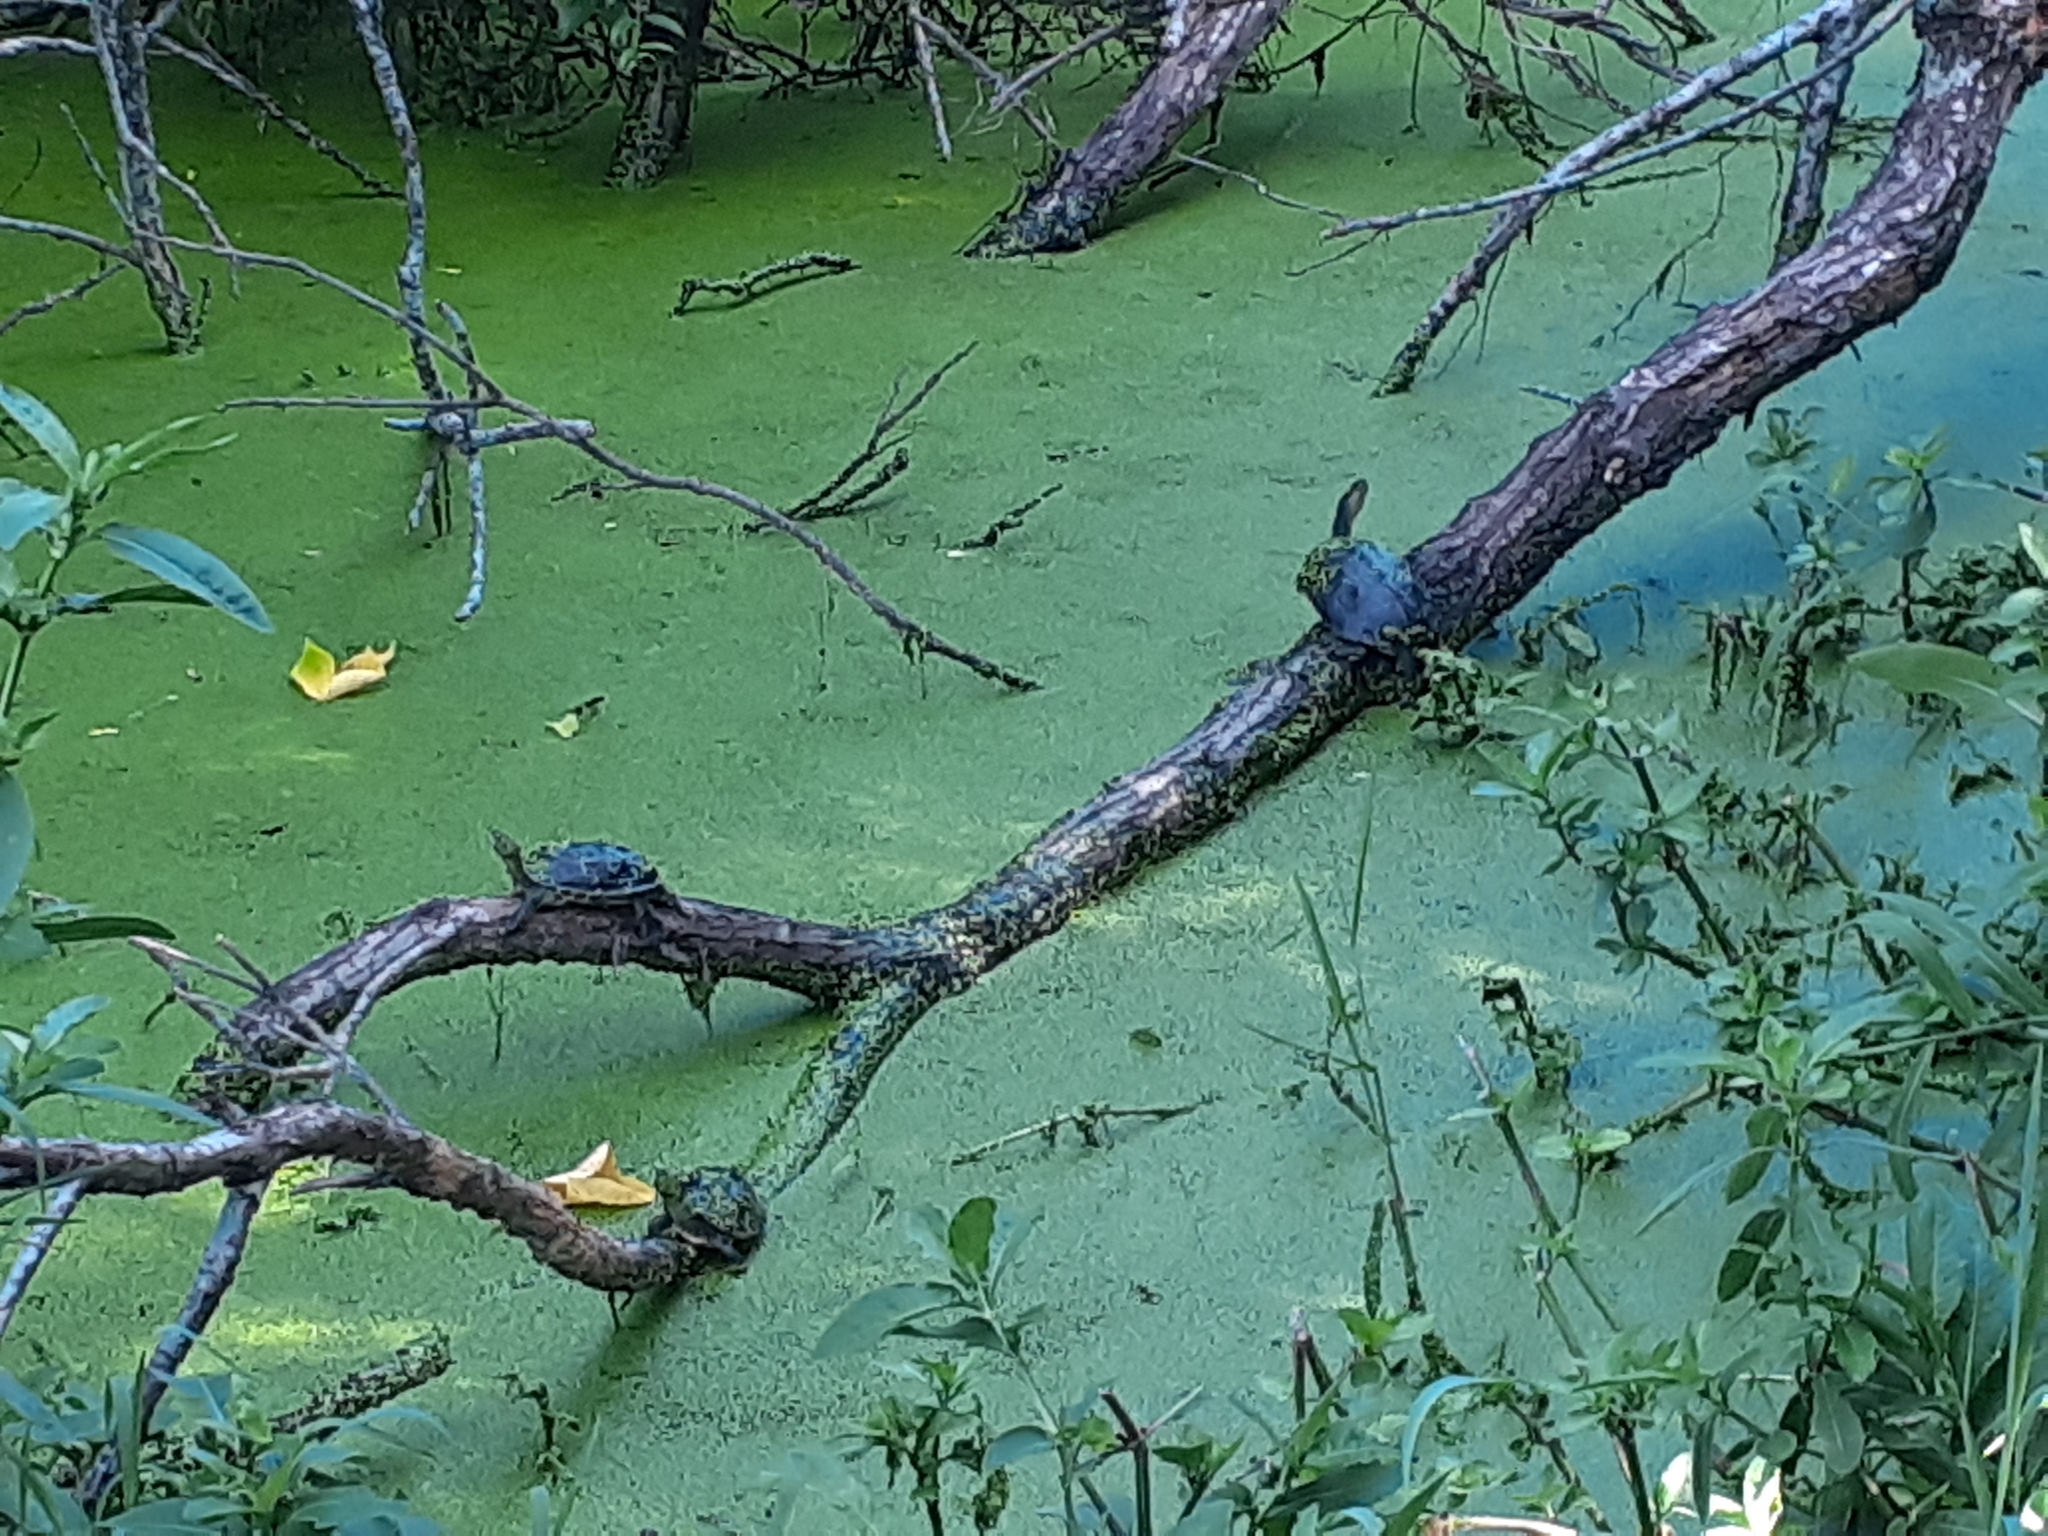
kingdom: Animalia
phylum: Chordata
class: Testudines
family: Geoemydidae
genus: Mauremys
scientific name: Mauremys sinensis
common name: Chinese stripe-necked turtle
